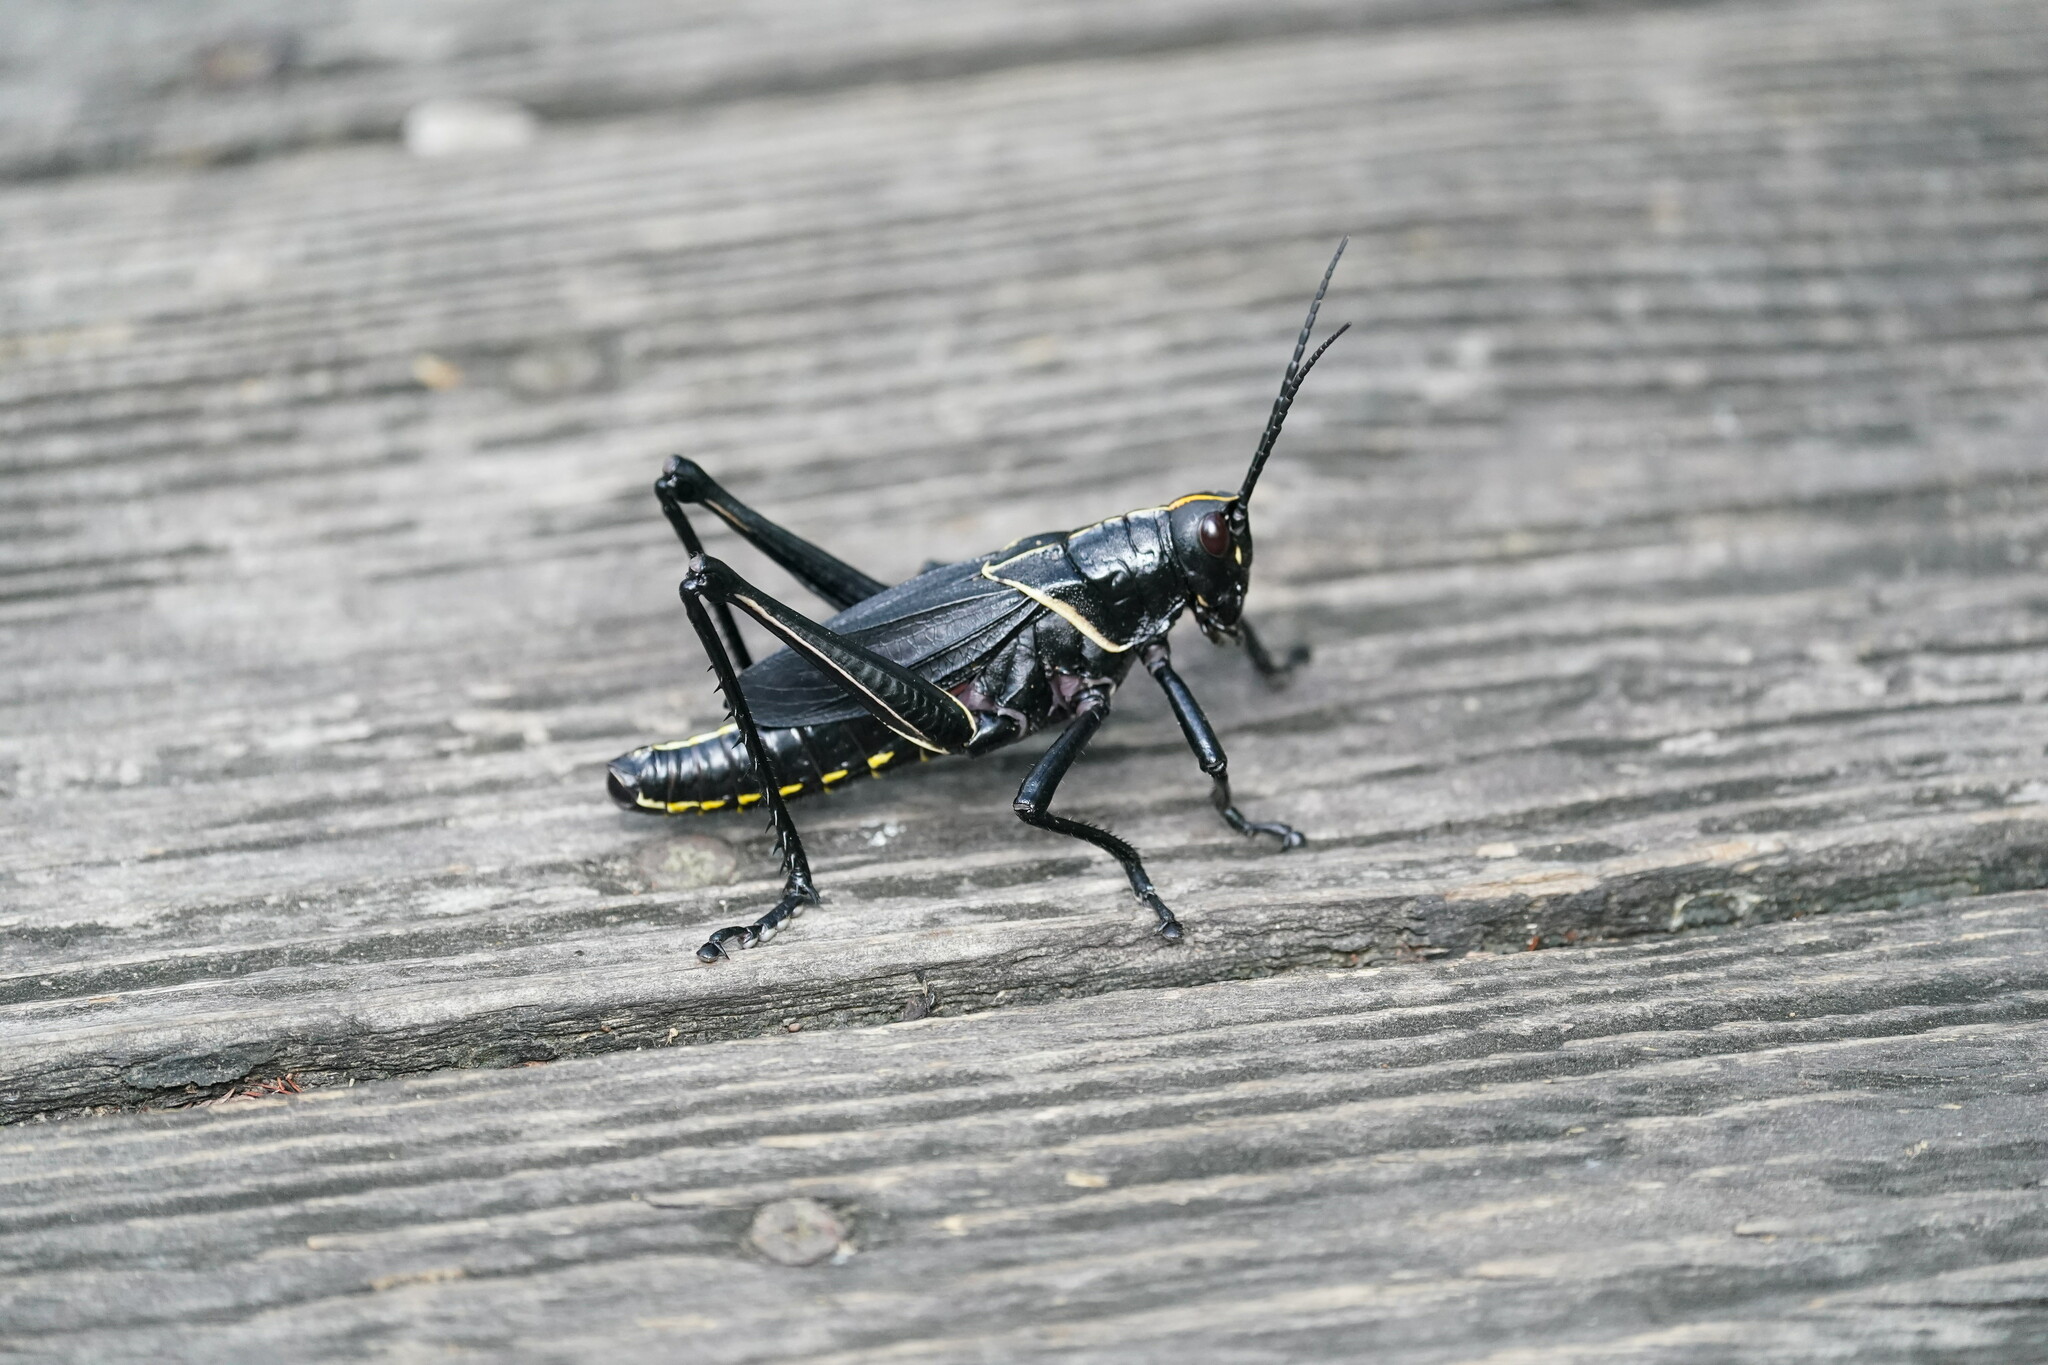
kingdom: Animalia
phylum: Arthropoda
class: Insecta
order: Orthoptera
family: Romaleidae
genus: Romalea
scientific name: Romalea microptera
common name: Eastern lubber grasshopper
